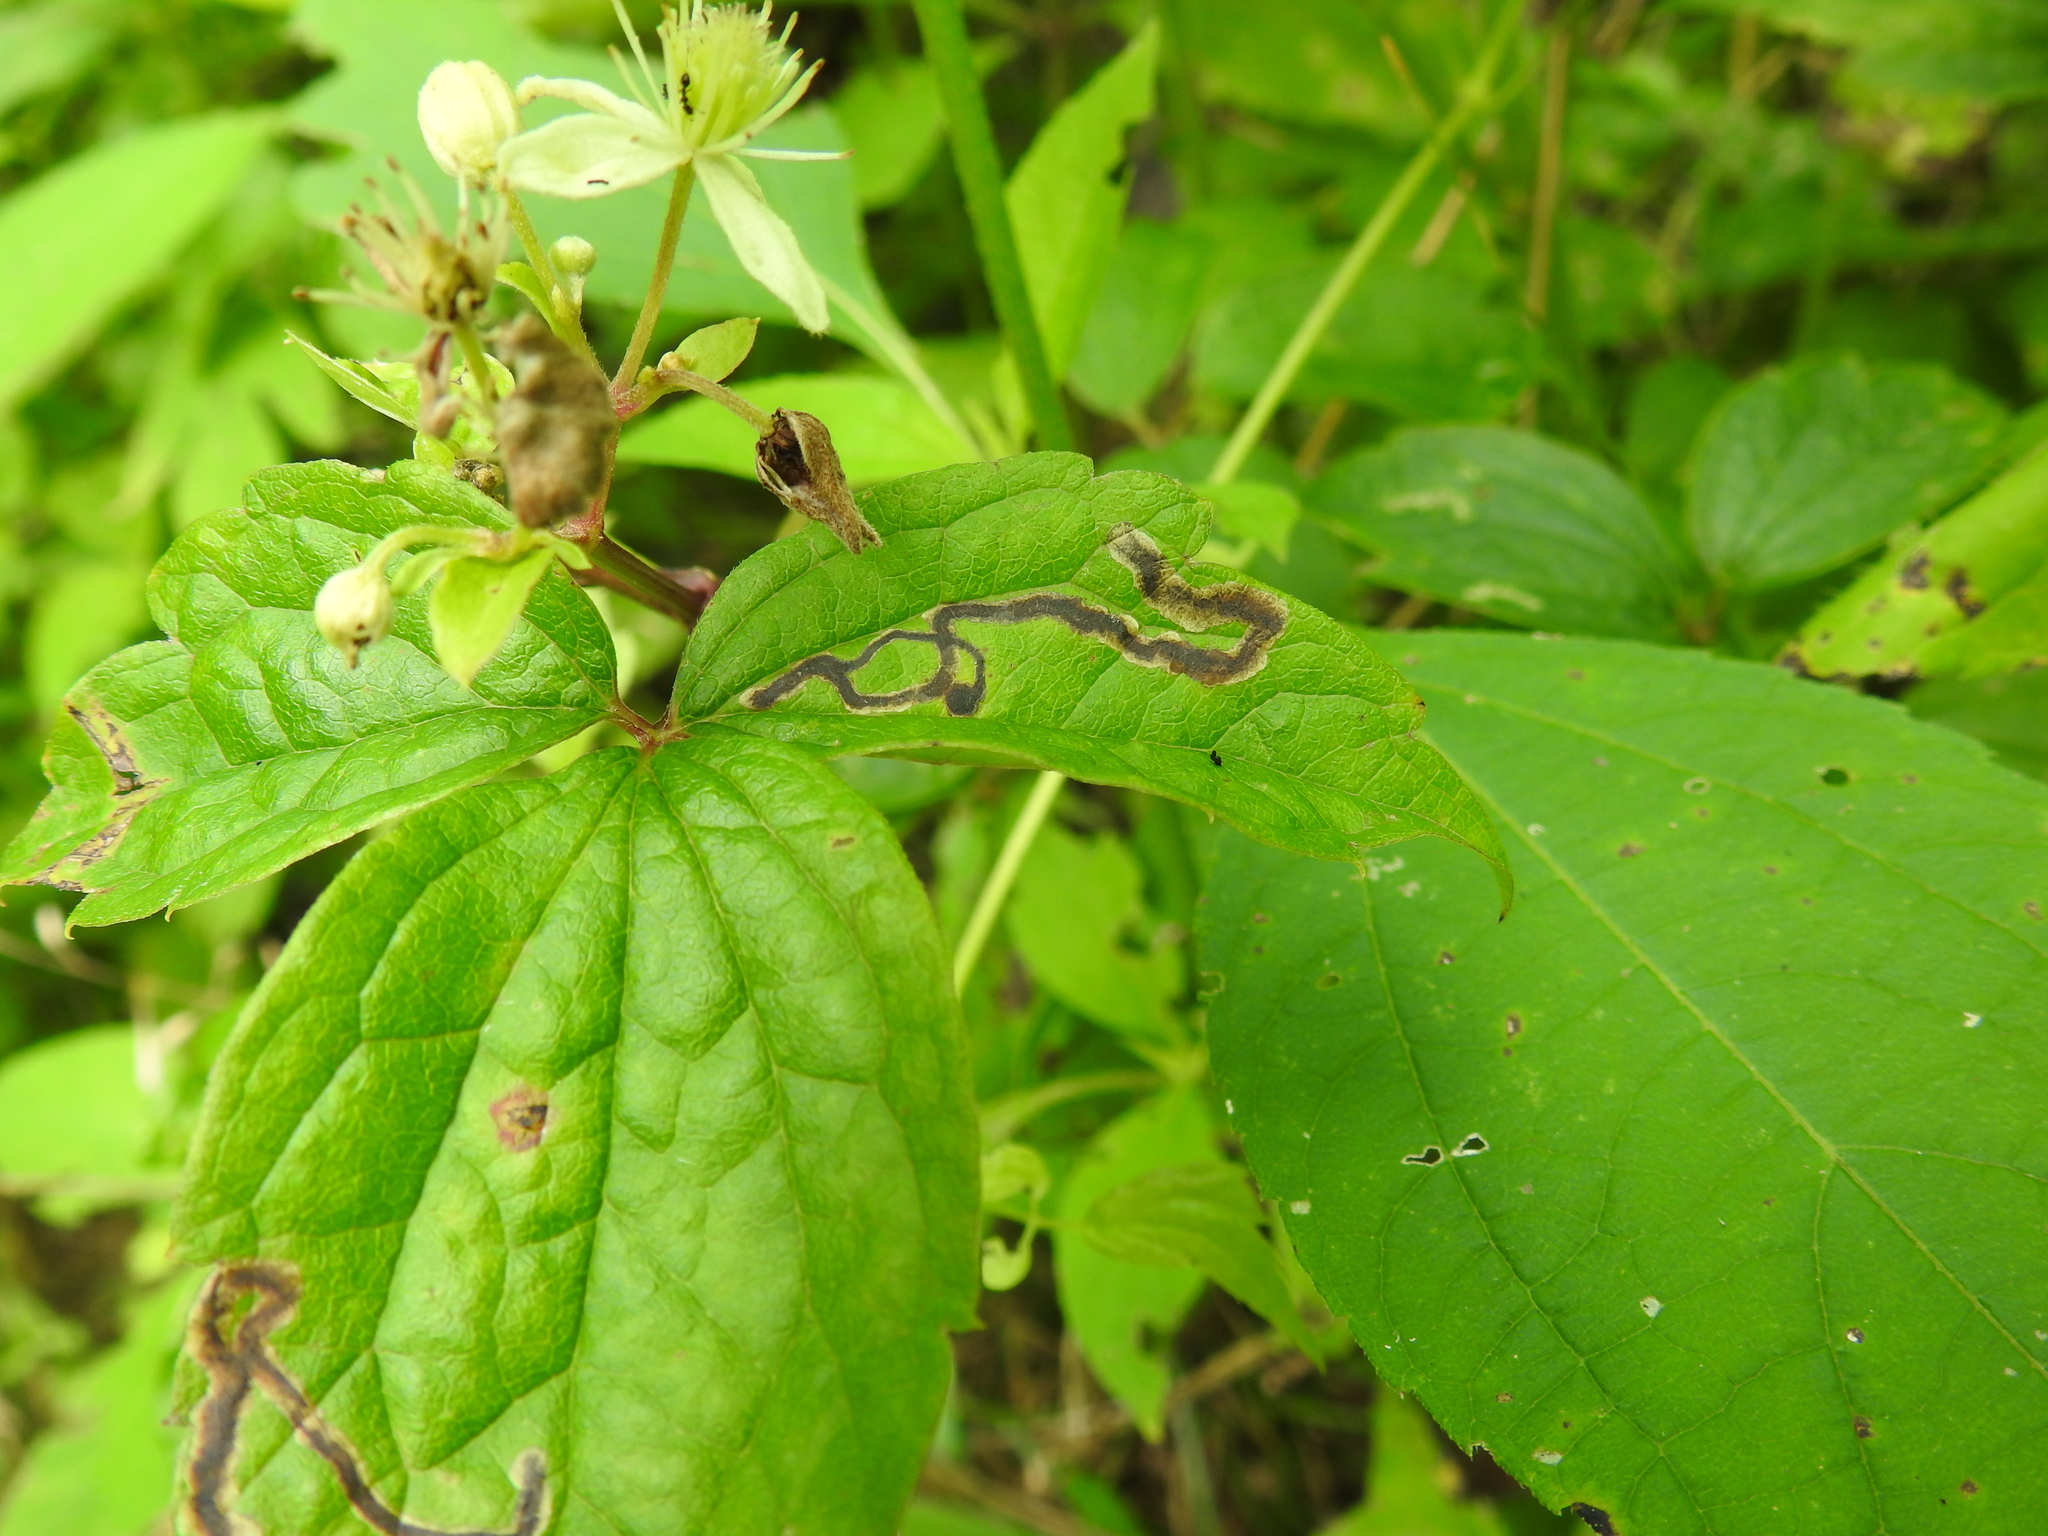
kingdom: Animalia
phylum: Arthropoda
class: Insecta
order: Diptera
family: Agromyzidae
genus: Phytomyza
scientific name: Phytomyza loewii
